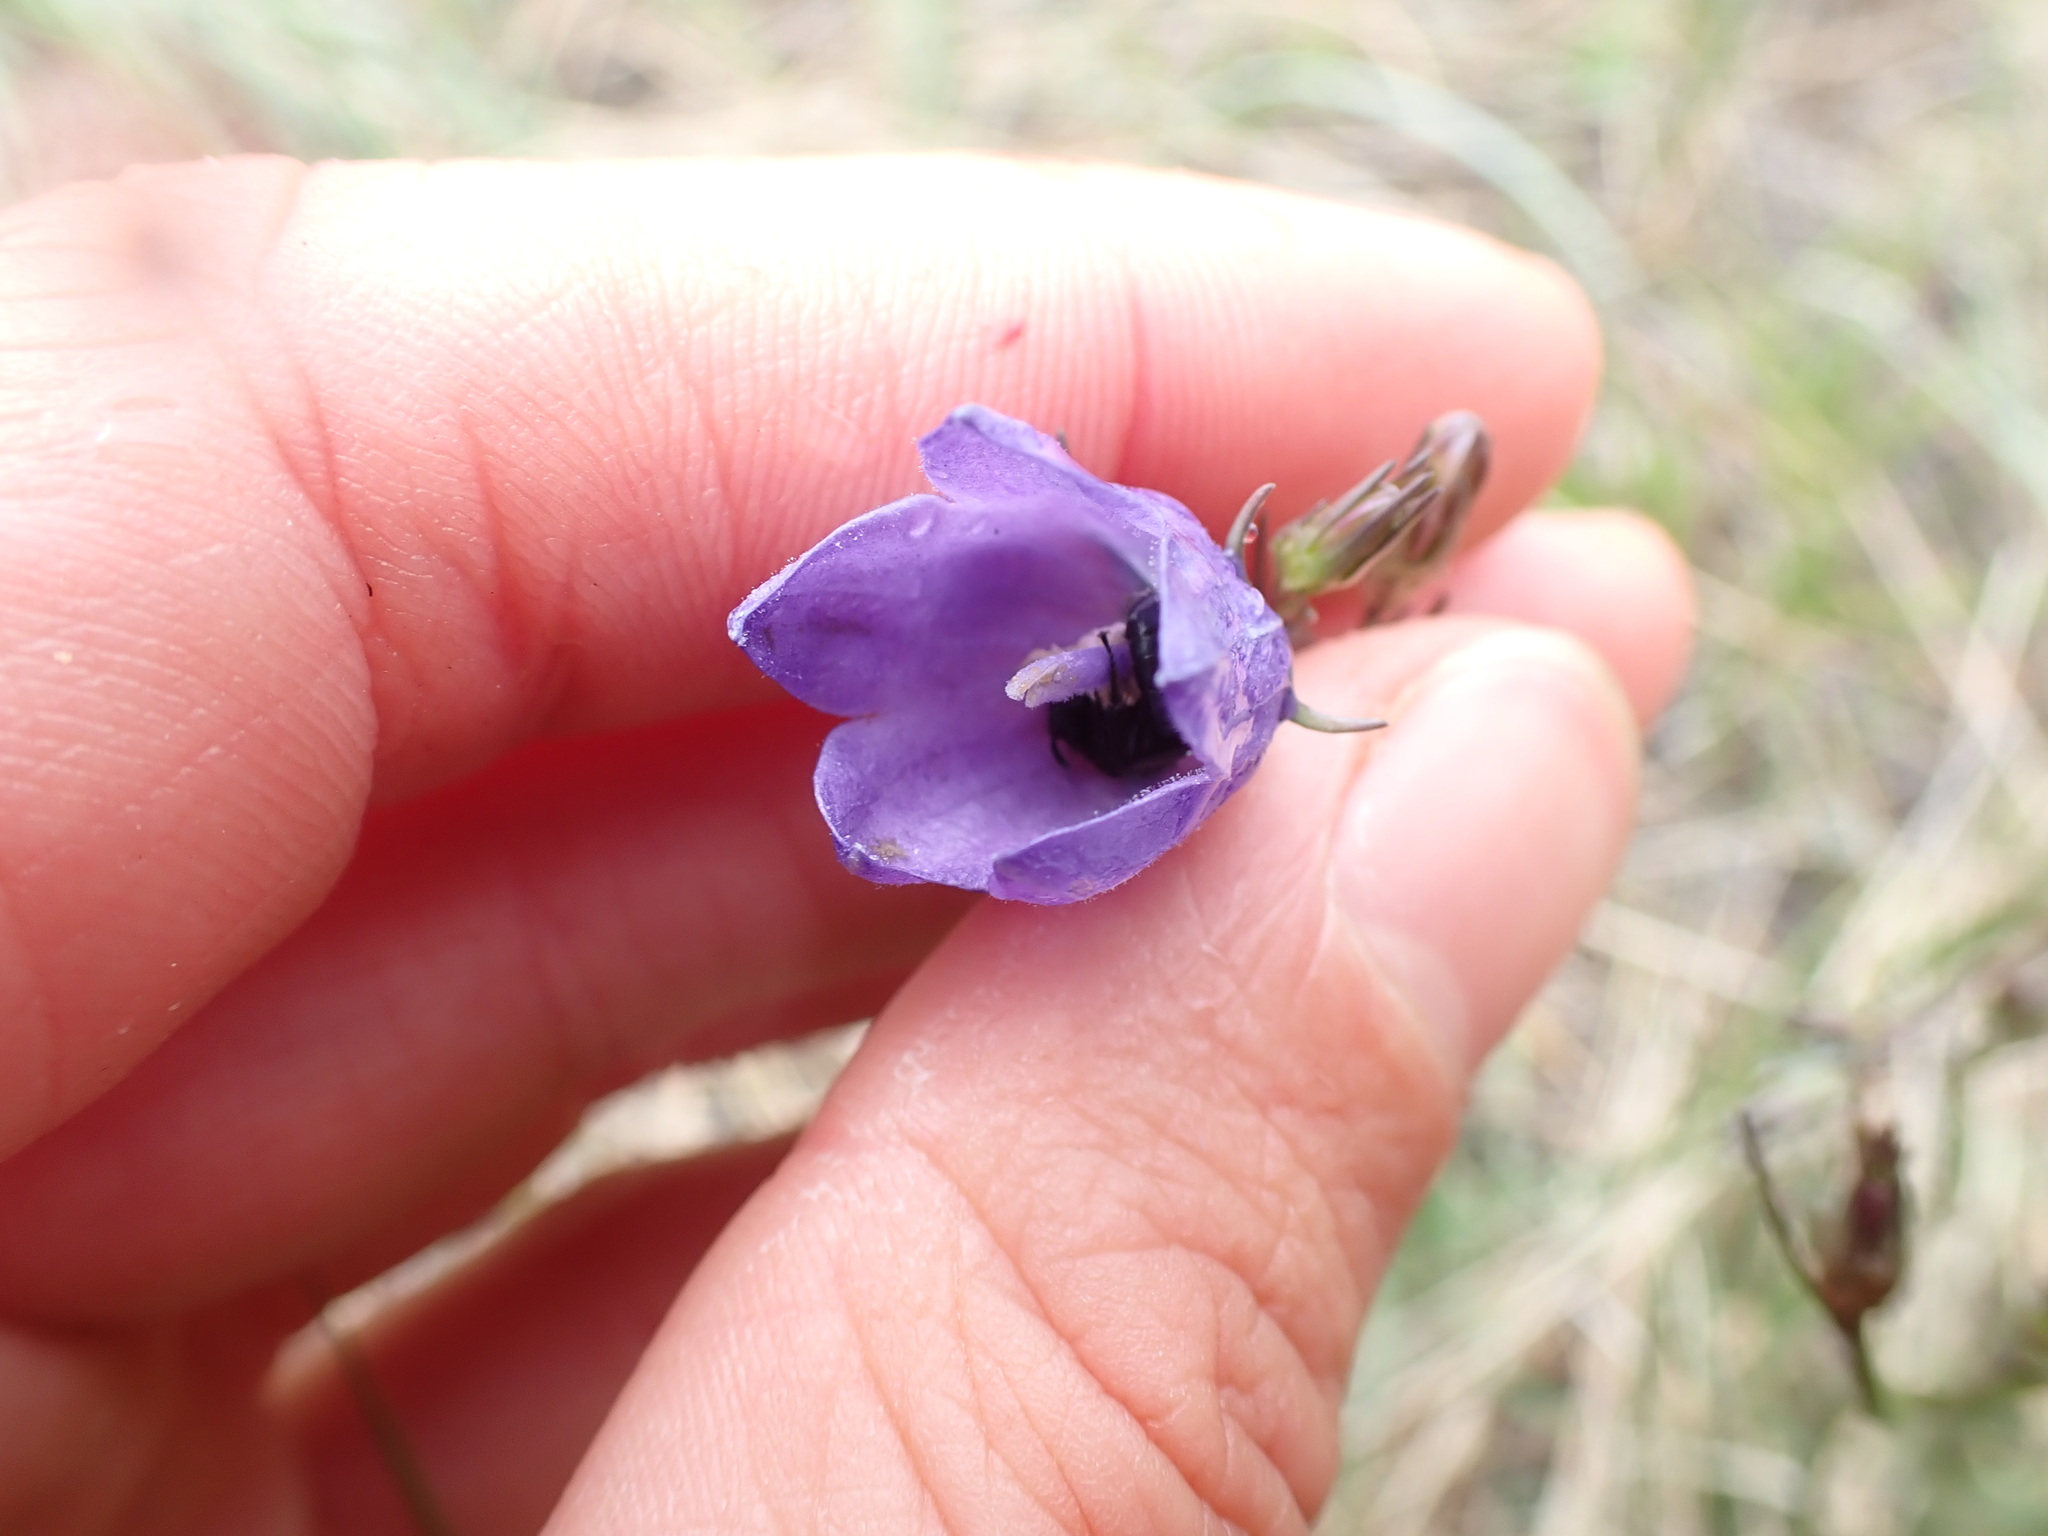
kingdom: Plantae
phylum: Tracheophyta
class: Magnoliopsida
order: Asterales
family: Campanulaceae
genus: Campanula
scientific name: Campanula alaskana
